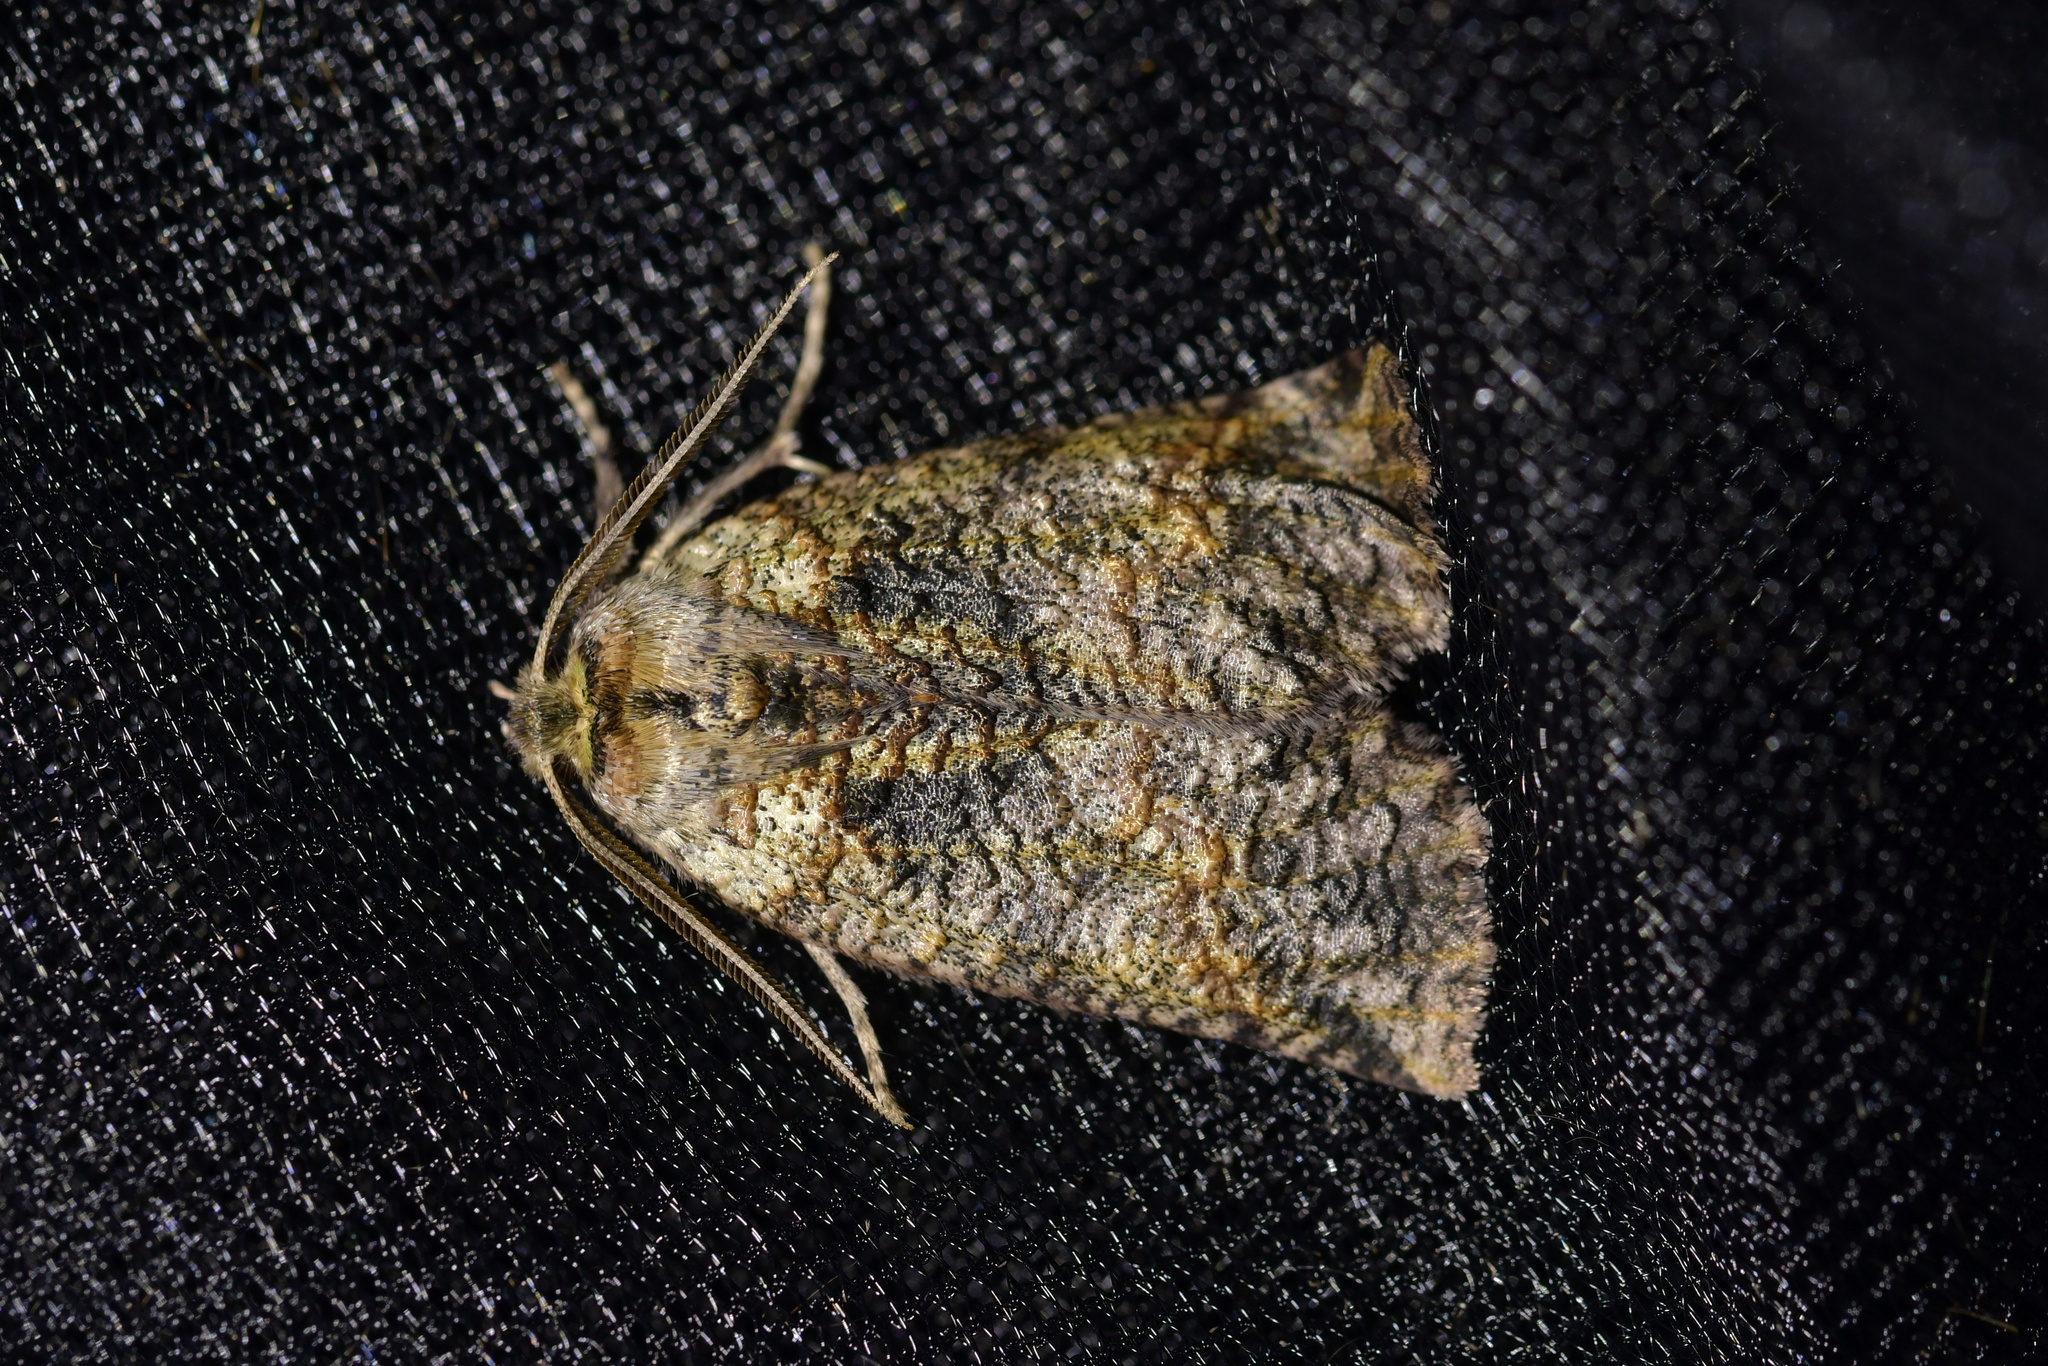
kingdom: Animalia
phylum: Arthropoda
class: Insecta
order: Lepidoptera
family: Geometridae
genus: Declana
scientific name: Declana floccosa
